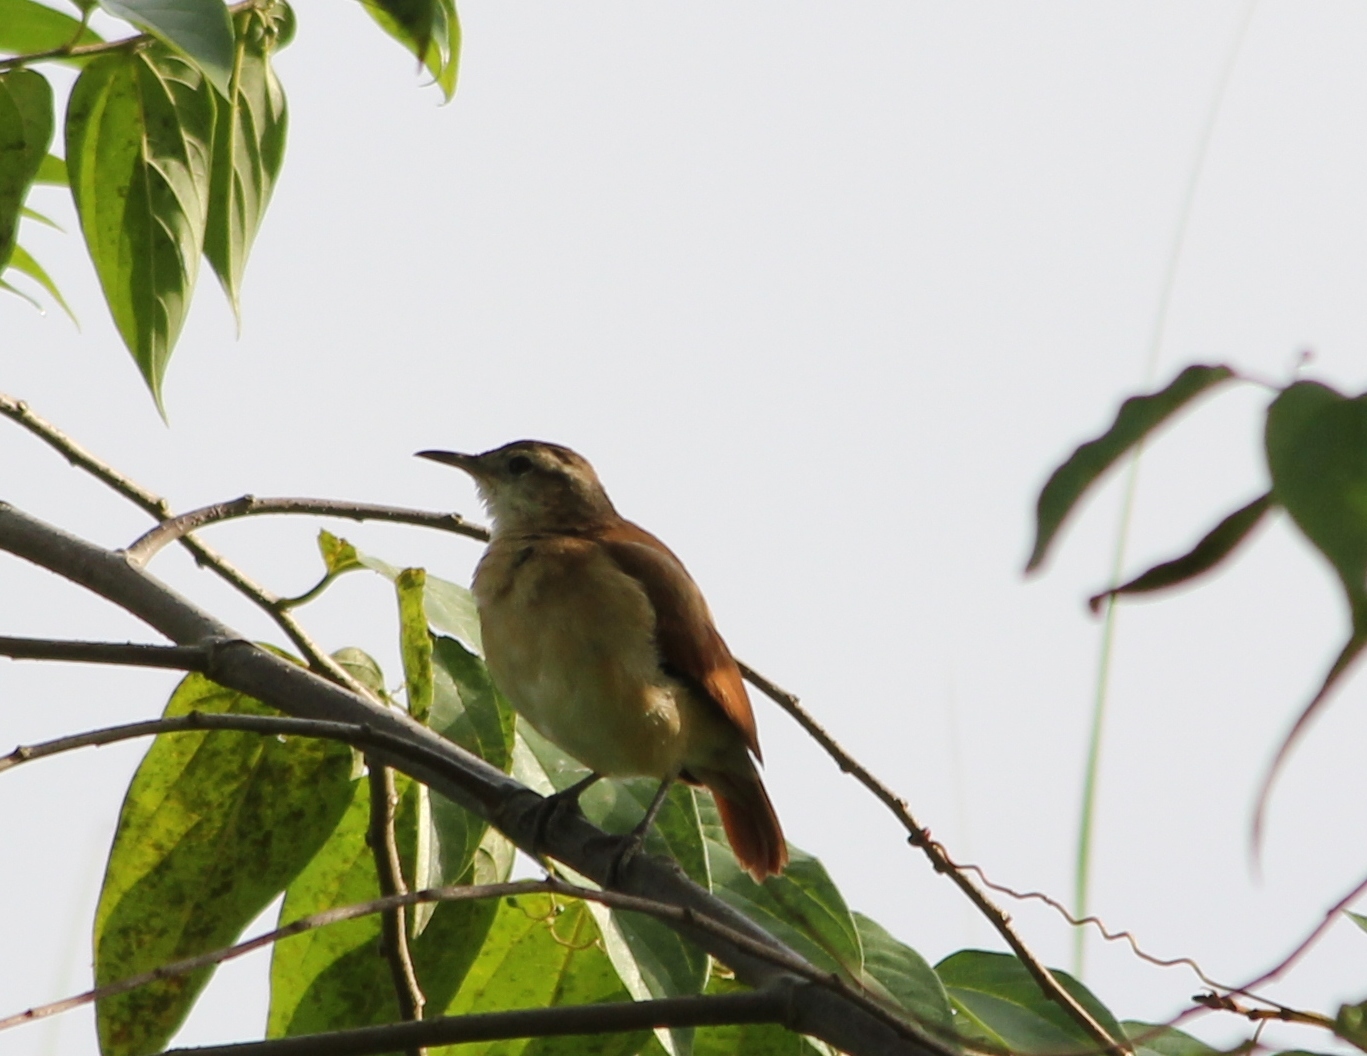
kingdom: Animalia
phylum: Chordata
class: Aves
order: Passeriformes
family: Furnariidae
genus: Furnarius
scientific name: Furnarius minor
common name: Lesser hornero
